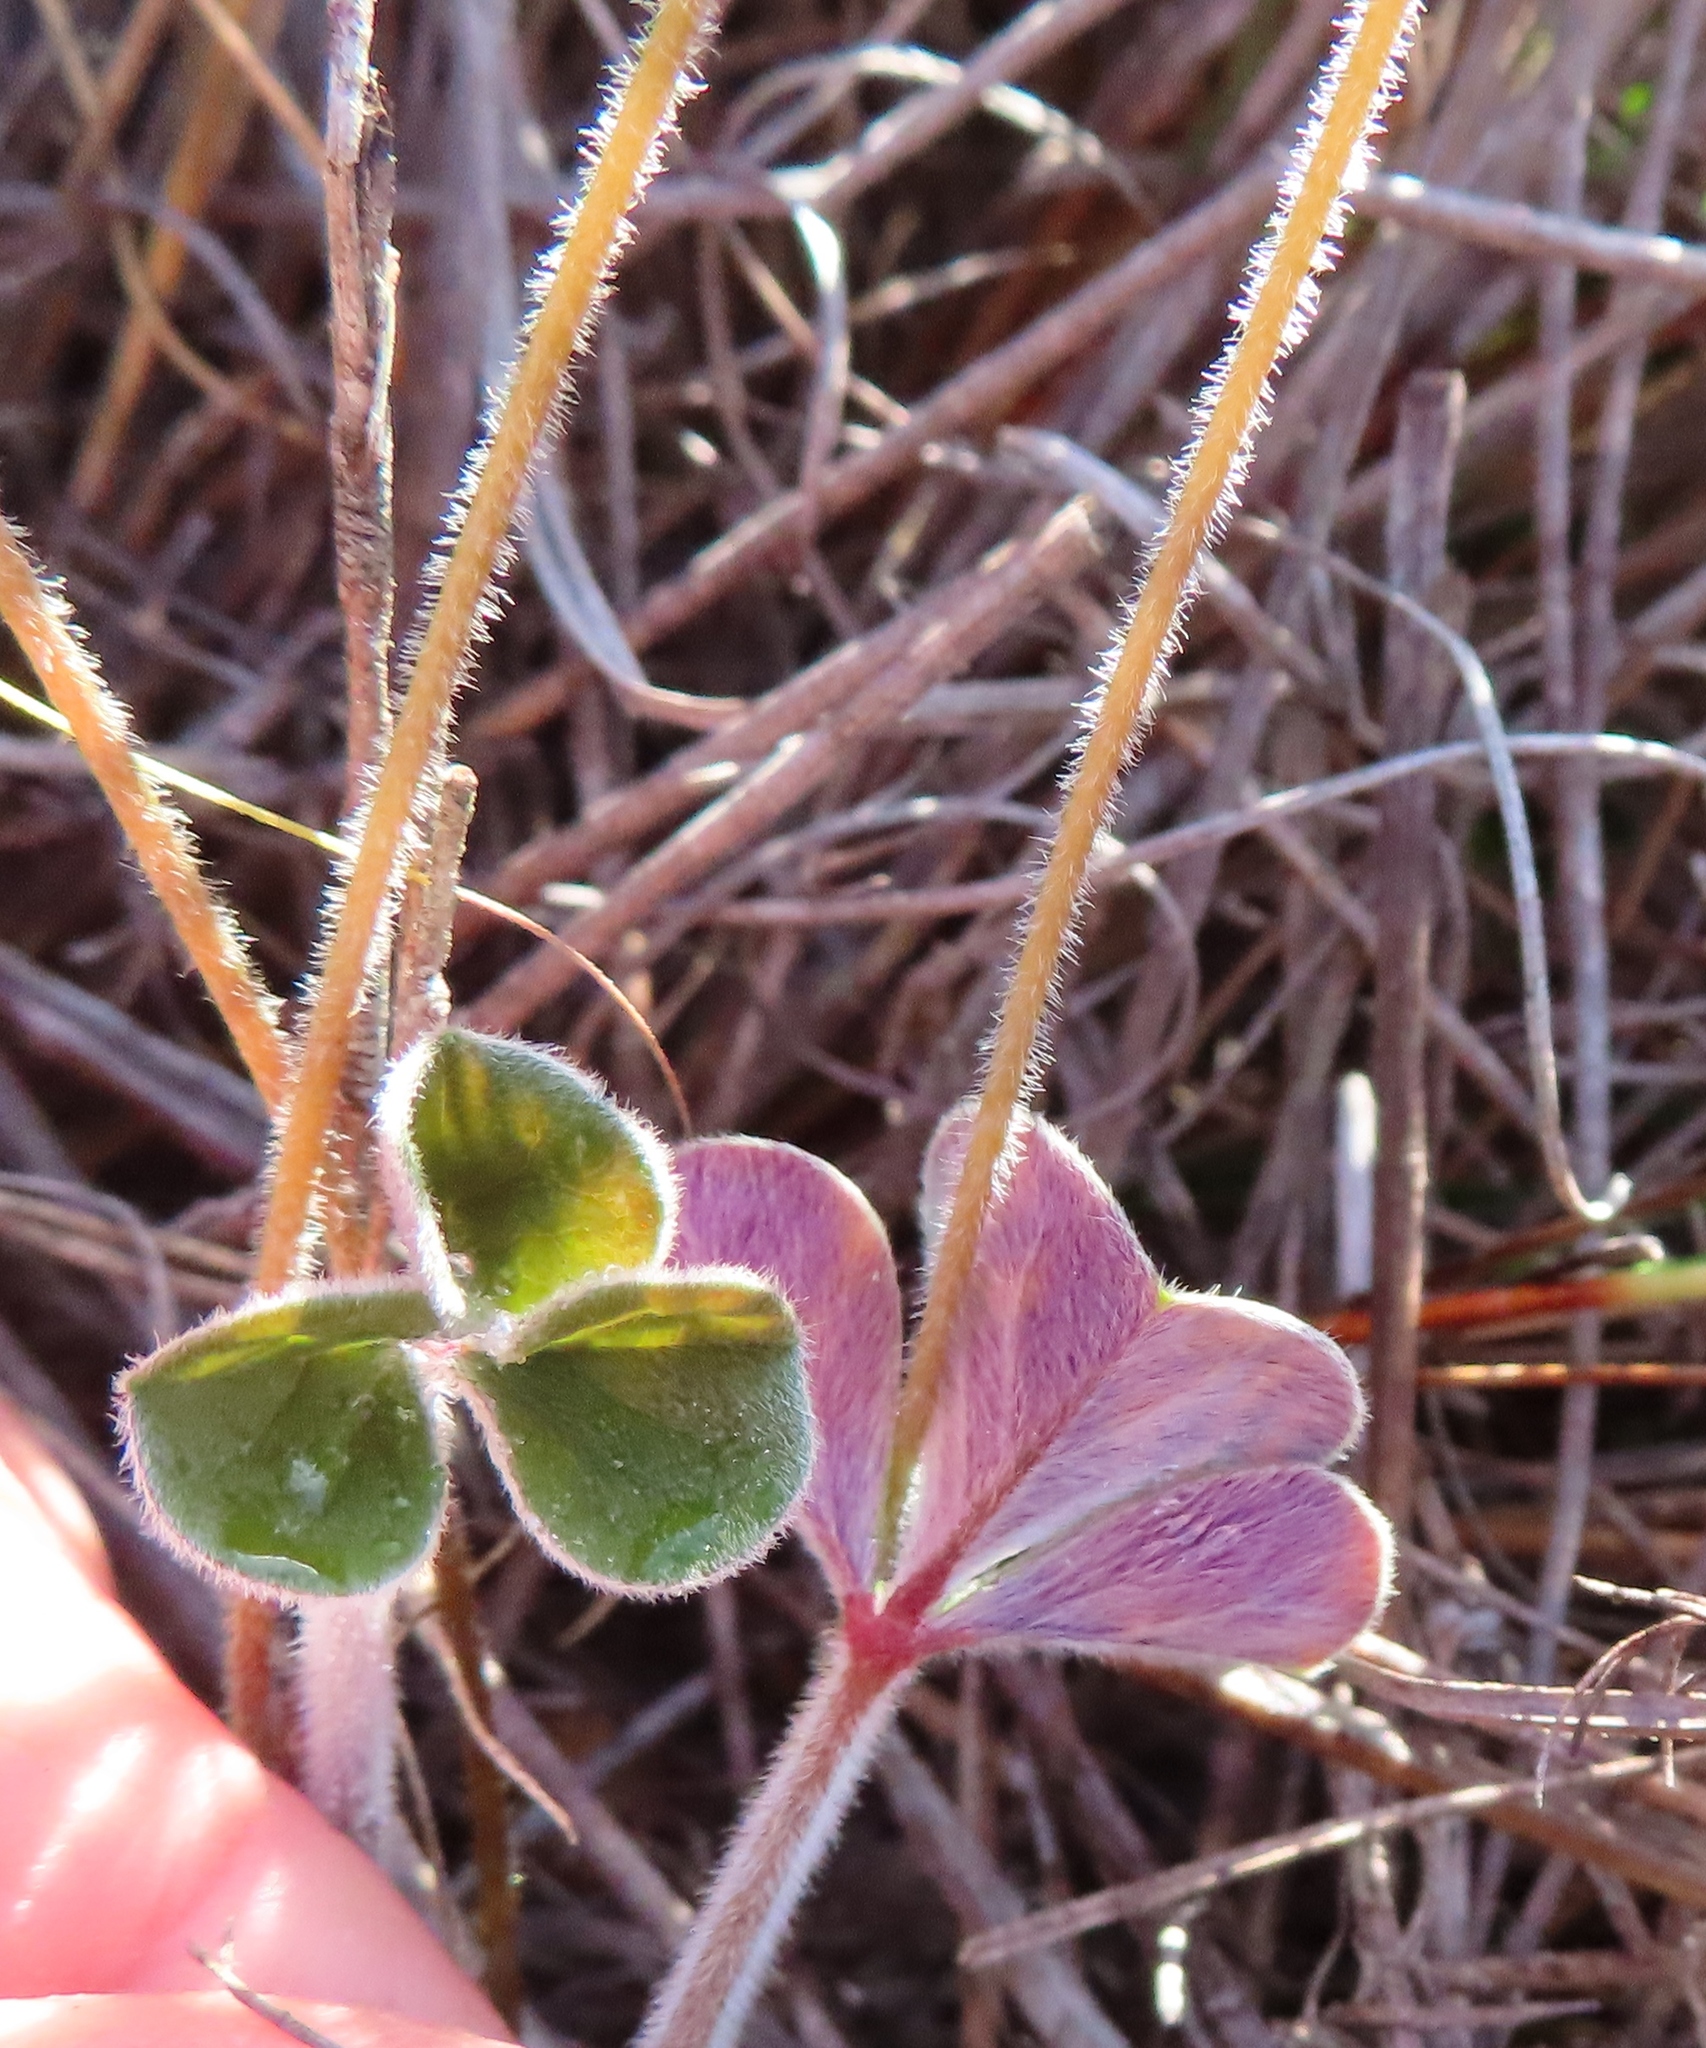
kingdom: Plantae
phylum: Tracheophyta
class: Magnoliopsida
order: Oxalidales
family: Oxalidaceae
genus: Oxalis
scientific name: Oxalis truncatula
